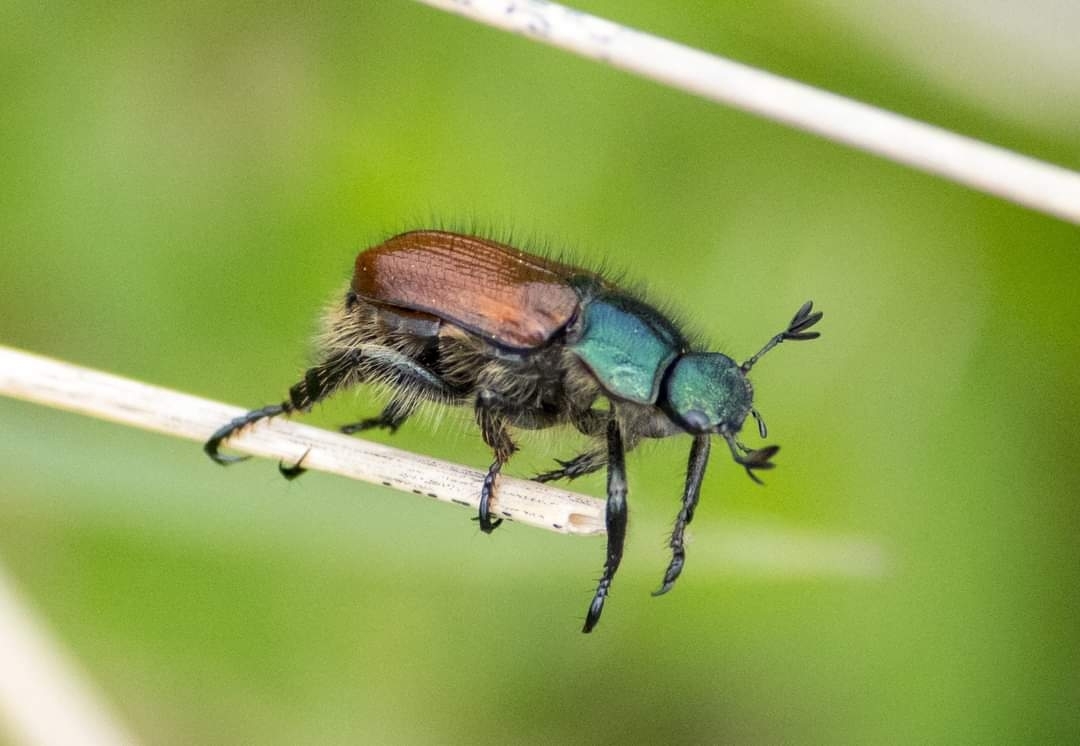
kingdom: Animalia
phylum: Arthropoda
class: Insecta
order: Coleoptera
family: Scarabaeidae
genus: Phyllopertha
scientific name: Phyllopertha horticola
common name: Garden chafer
